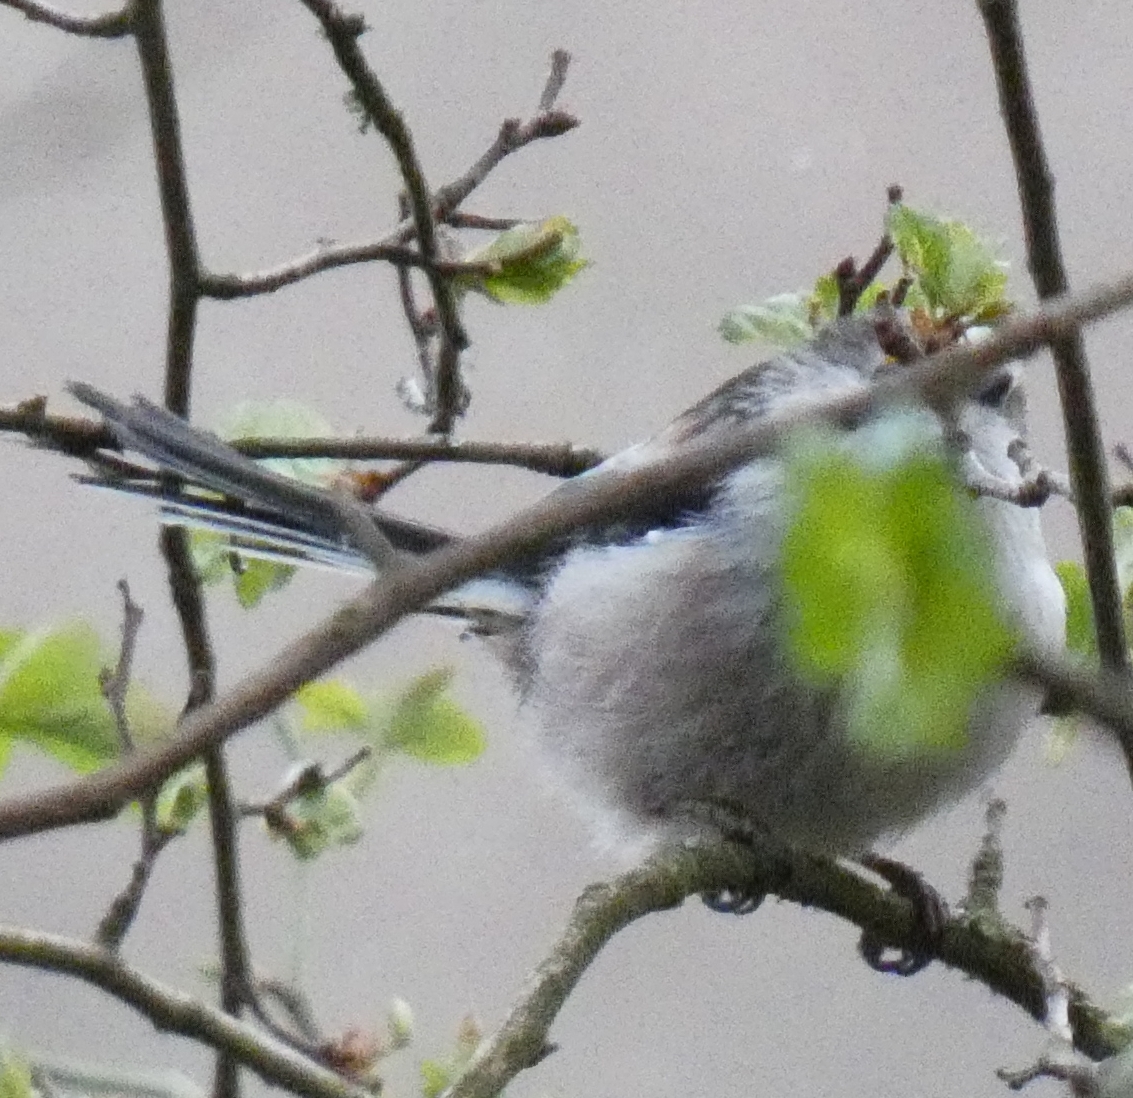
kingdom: Animalia
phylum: Chordata
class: Aves
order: Passeriformes
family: Aegithalidae
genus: Aegithalos
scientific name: Aegithalos caudatus
